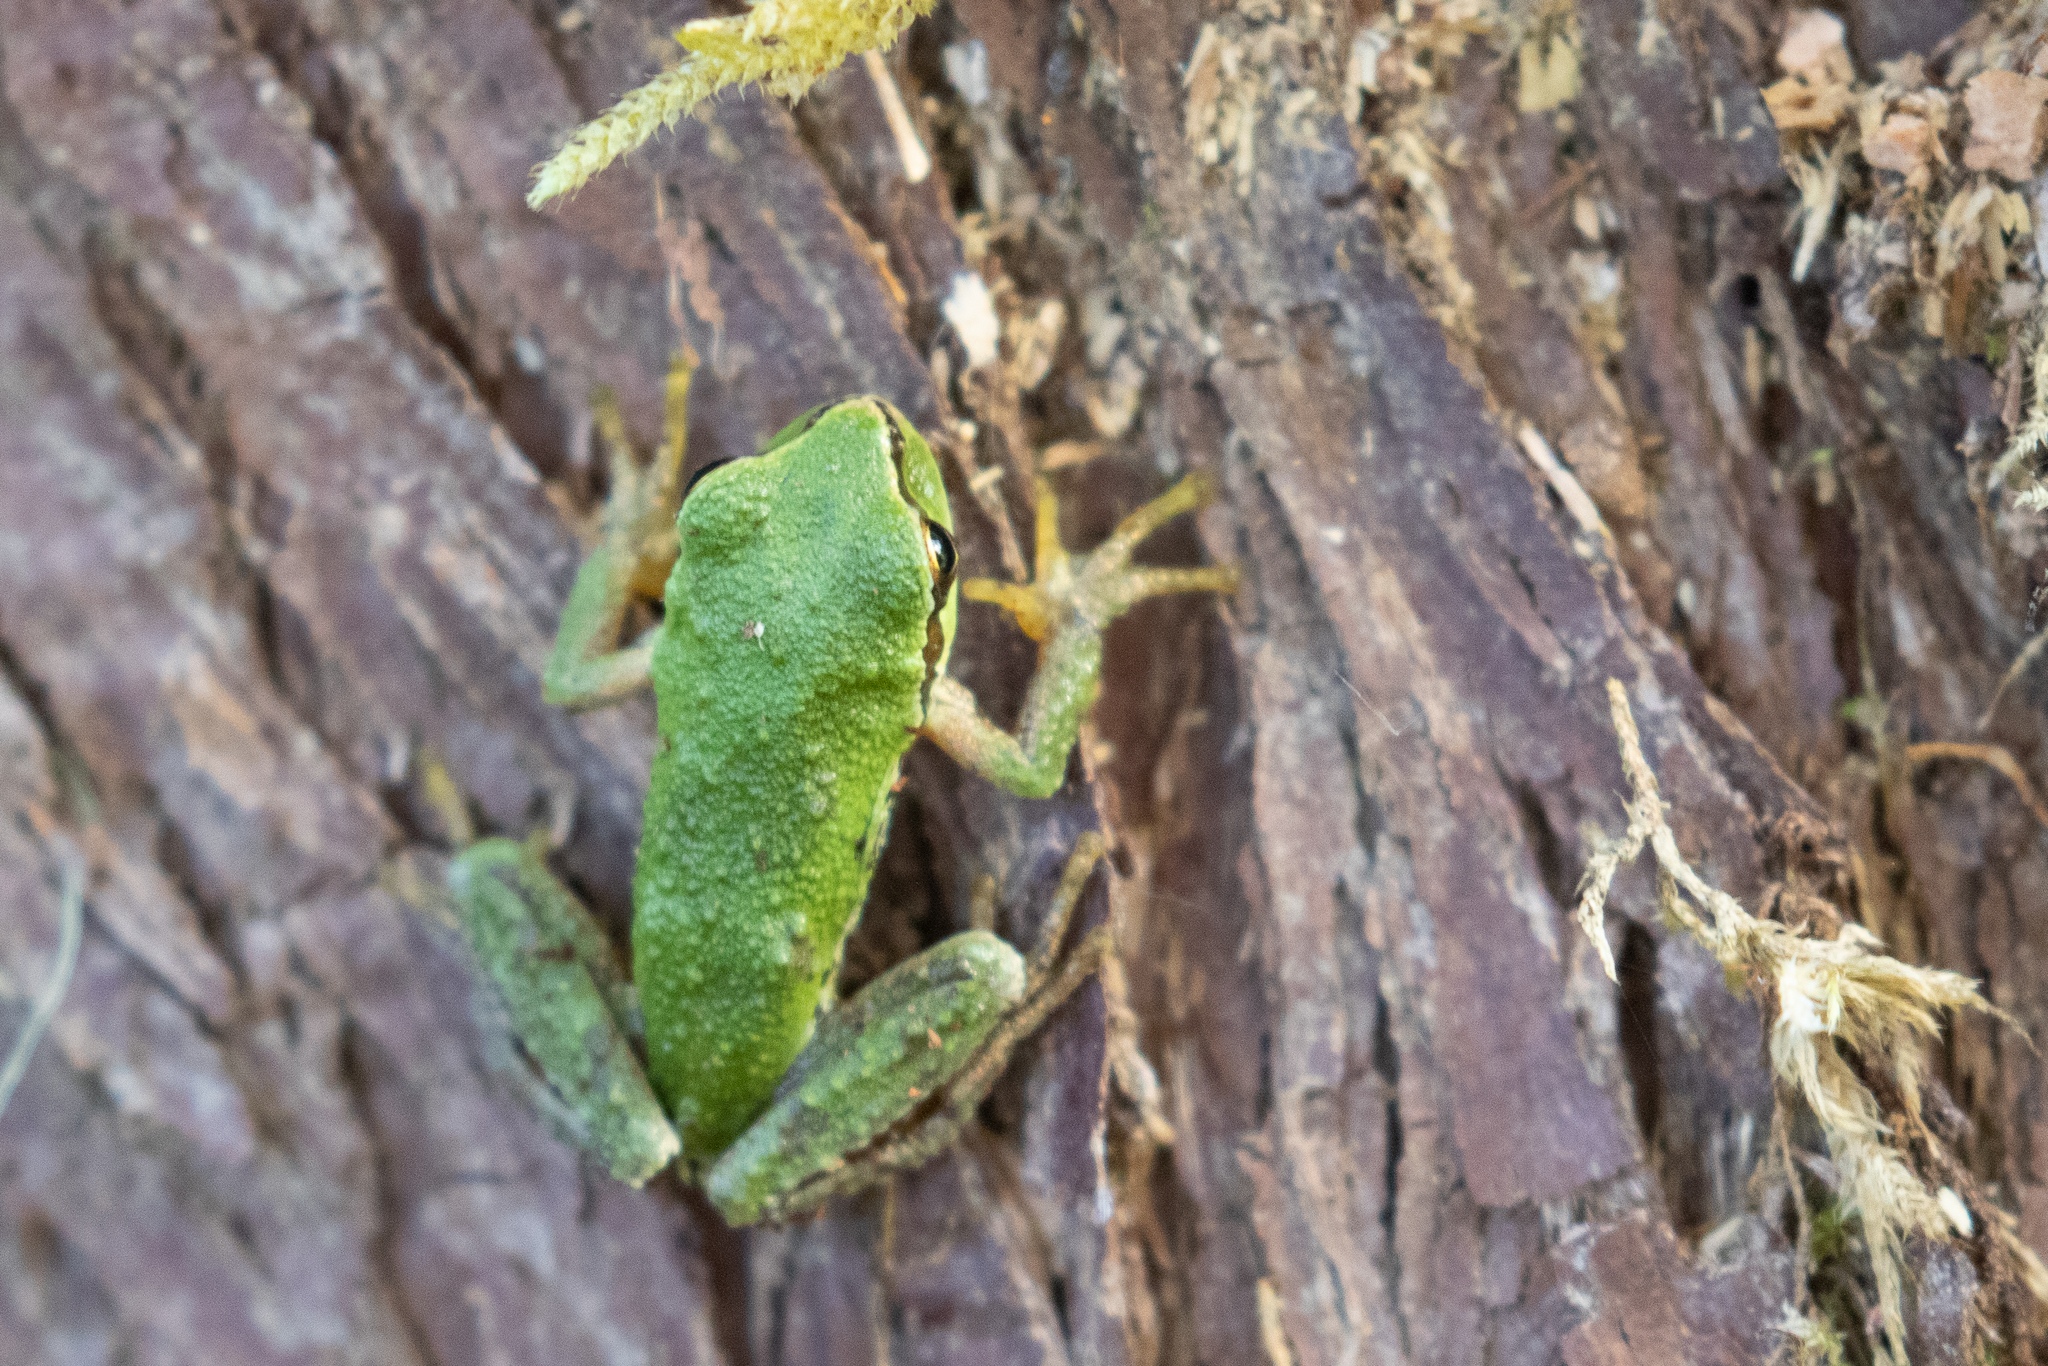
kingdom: Animalia
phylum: Chordata
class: Amphibia
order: Anura
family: Hylidae
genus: Pseudacris
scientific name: Pseudacris regilla
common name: Pacific chorus frog
